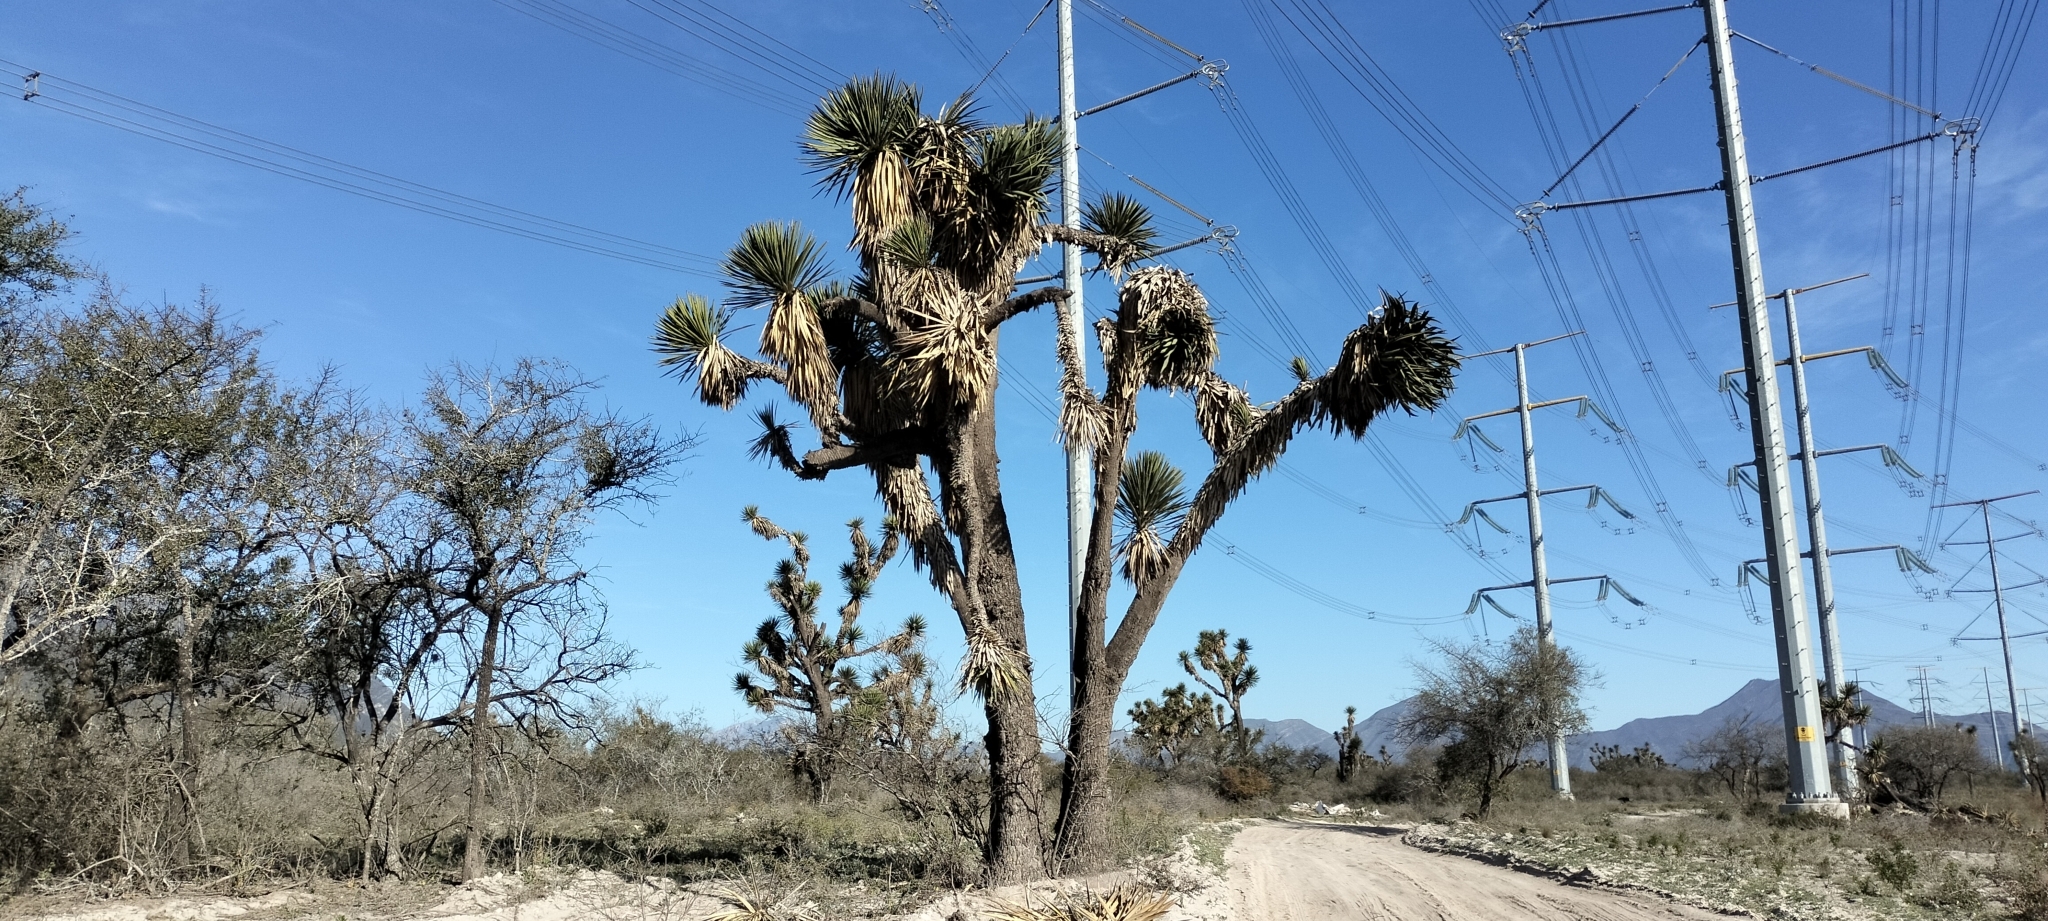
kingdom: Plantae
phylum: Tracheophyta
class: Liliopsida
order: Asparagales
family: Asparagaceae
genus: Yucca
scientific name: Yucca filifera
